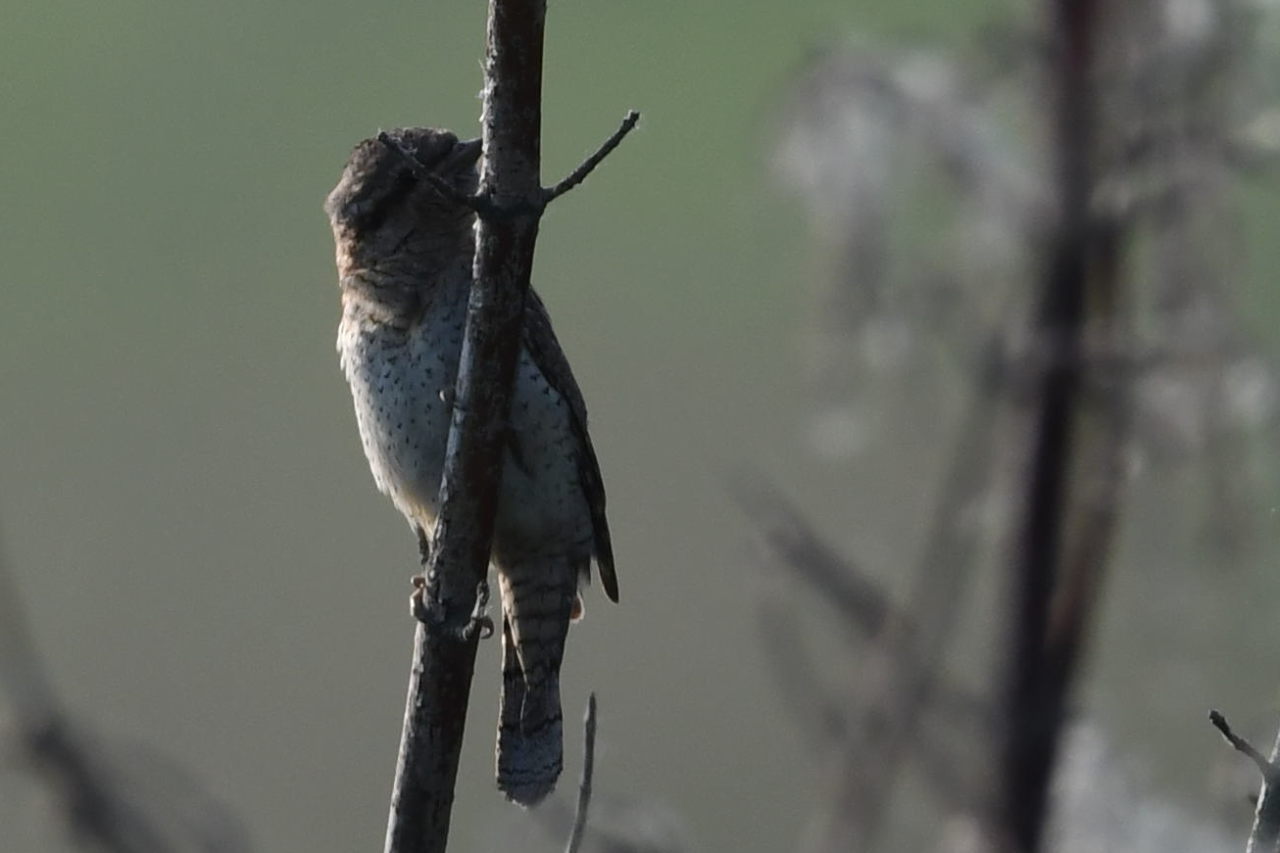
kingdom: Animalia
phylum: Chordata
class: Aves
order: Piciformes
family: Picidae
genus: Jynx
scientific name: Jynx torquilla
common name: Eurasian wryneck
